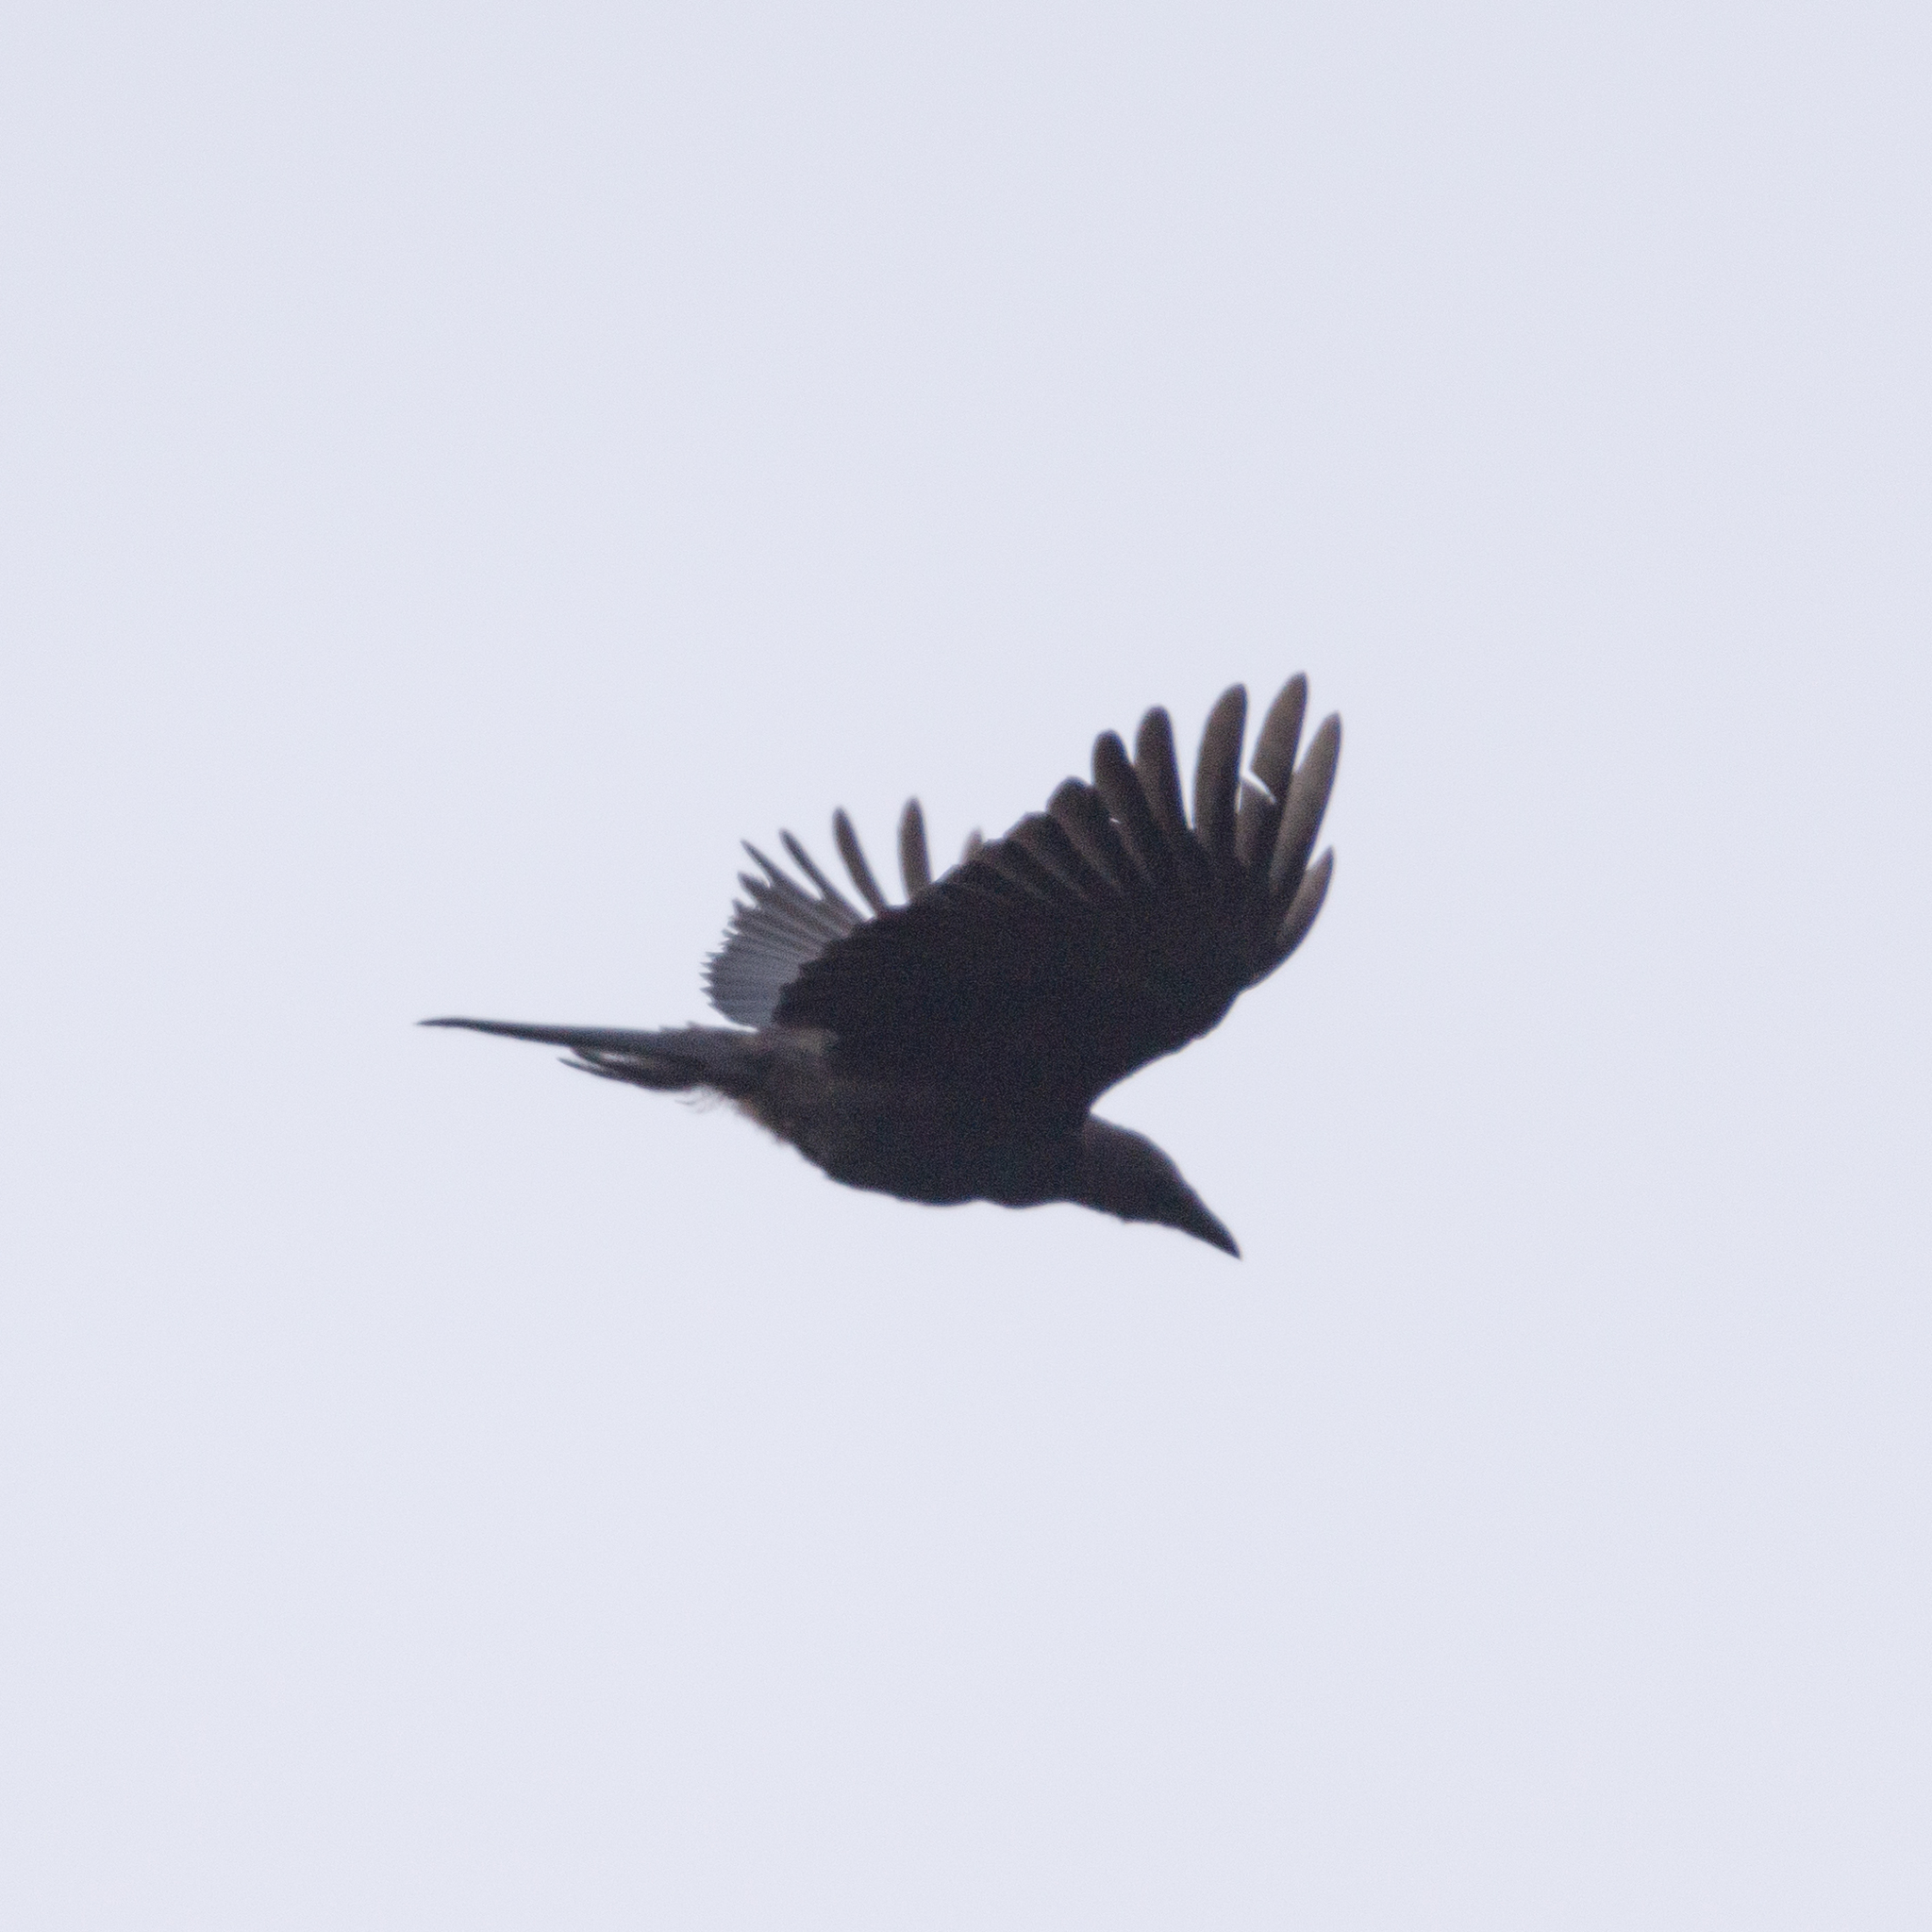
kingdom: Animalia
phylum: Chordata
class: Aves
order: Passeriformes
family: Corvidae
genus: Corvus
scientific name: Corvus corone
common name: Carrion crow
